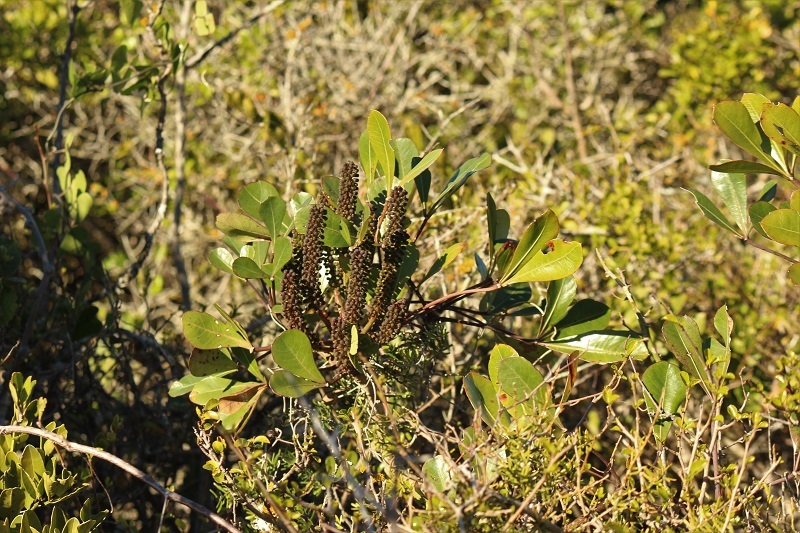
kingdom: Plantae
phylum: Tracheophyta
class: Magnoliopsida
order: Apiales
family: Araliaceae
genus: Cussonia
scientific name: Cussonia thyrsiflora
